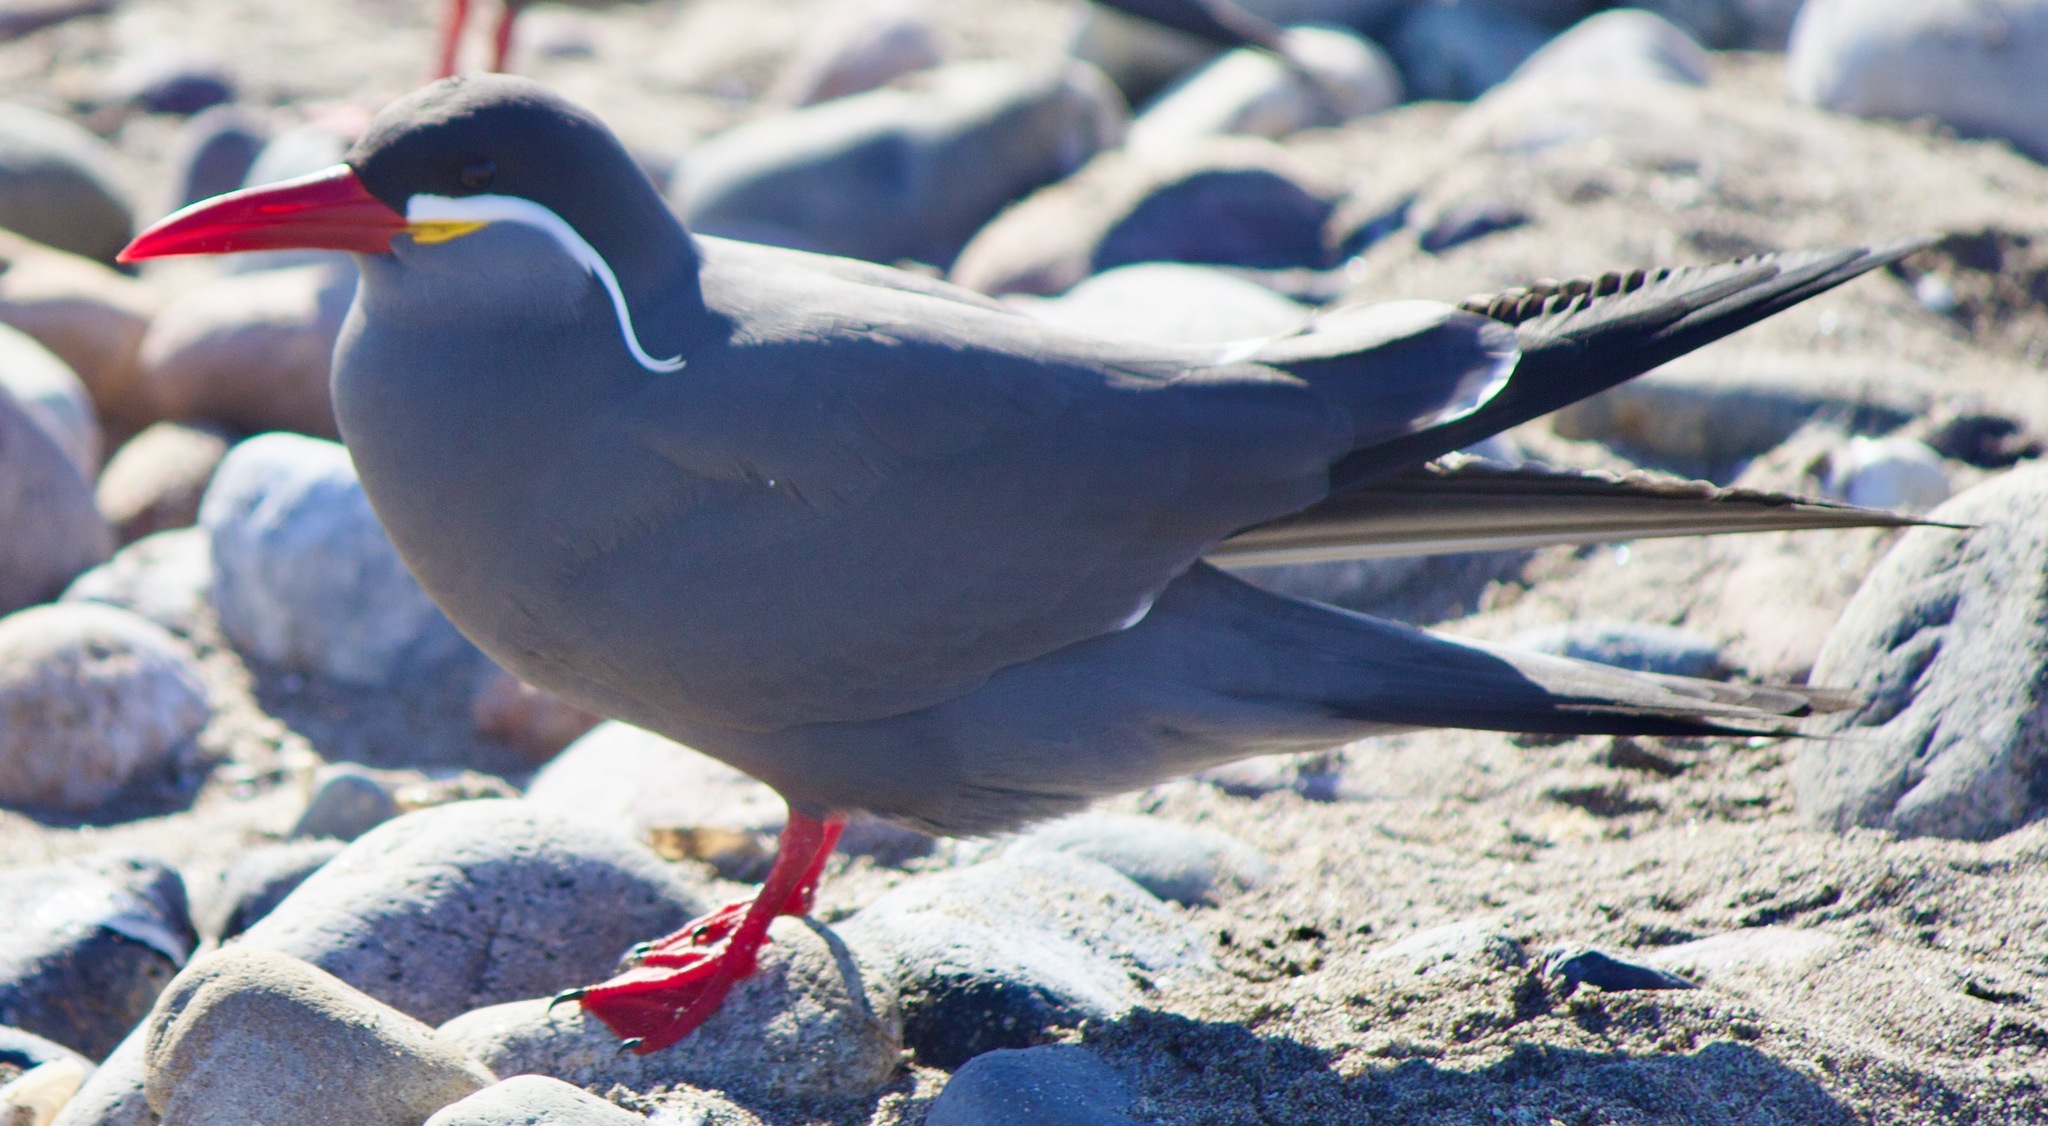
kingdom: Animalia
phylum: Chordata
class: Aves
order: Charadriiformes
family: Laridae
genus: Larosterna
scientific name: Larosterna inca
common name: Inca tern
